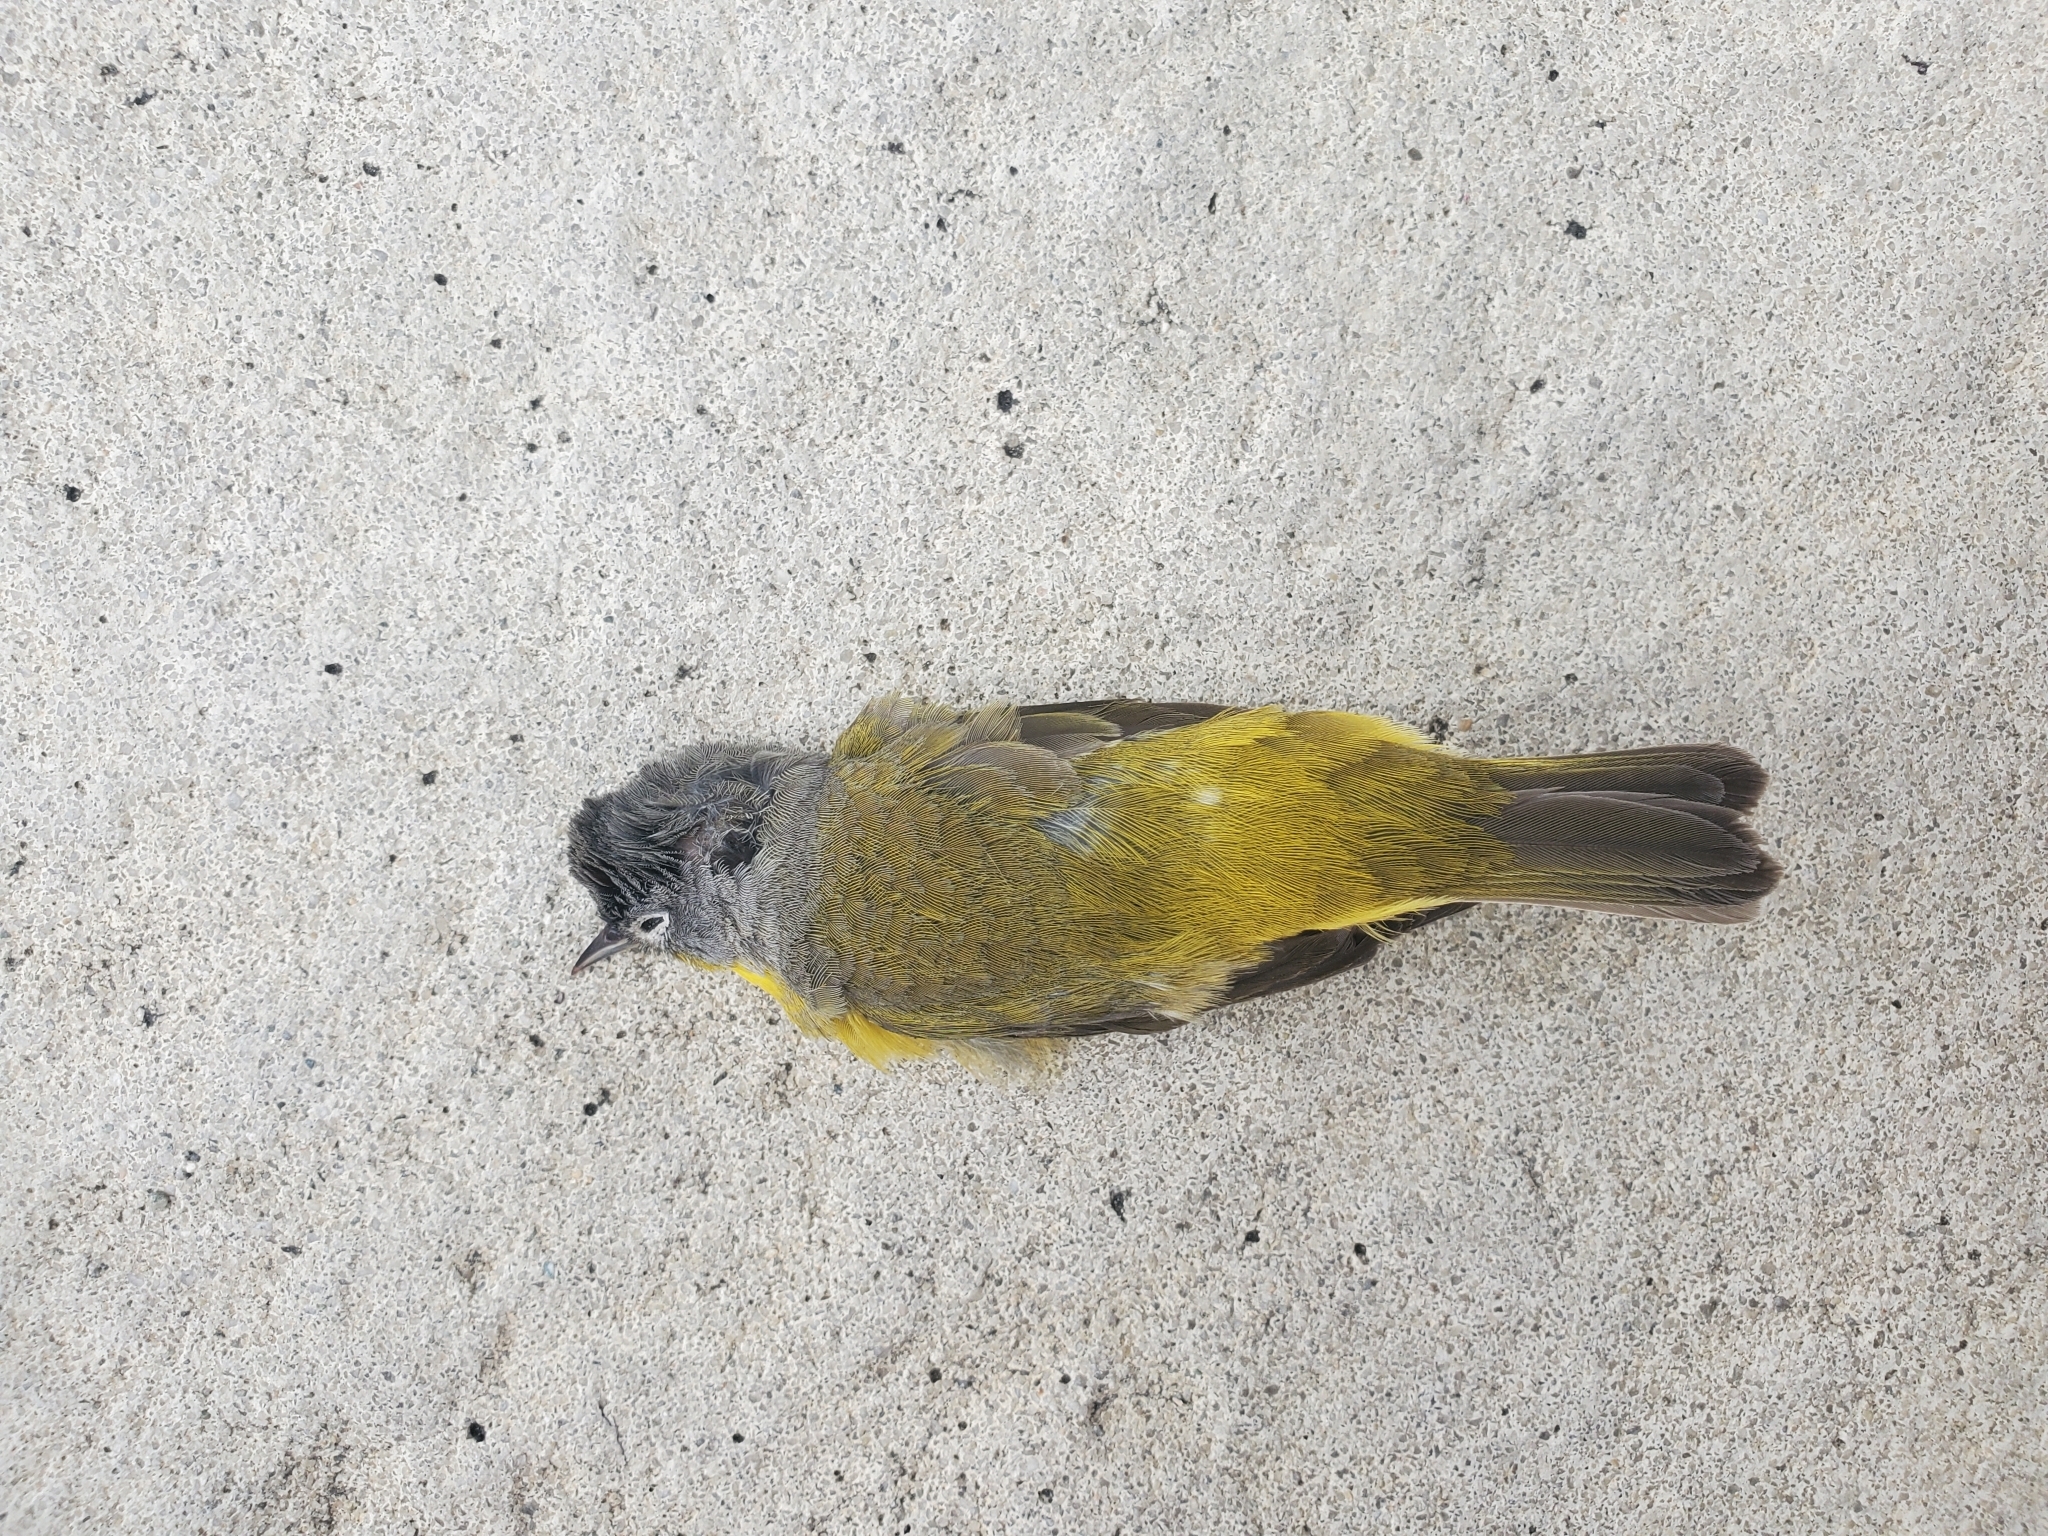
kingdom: Animalia
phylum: Chordata
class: Aves
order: Passeriformes
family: Parulidae
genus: Leiothlypis
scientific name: Leiothlypis ruficapilla
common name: Nashville warbler
